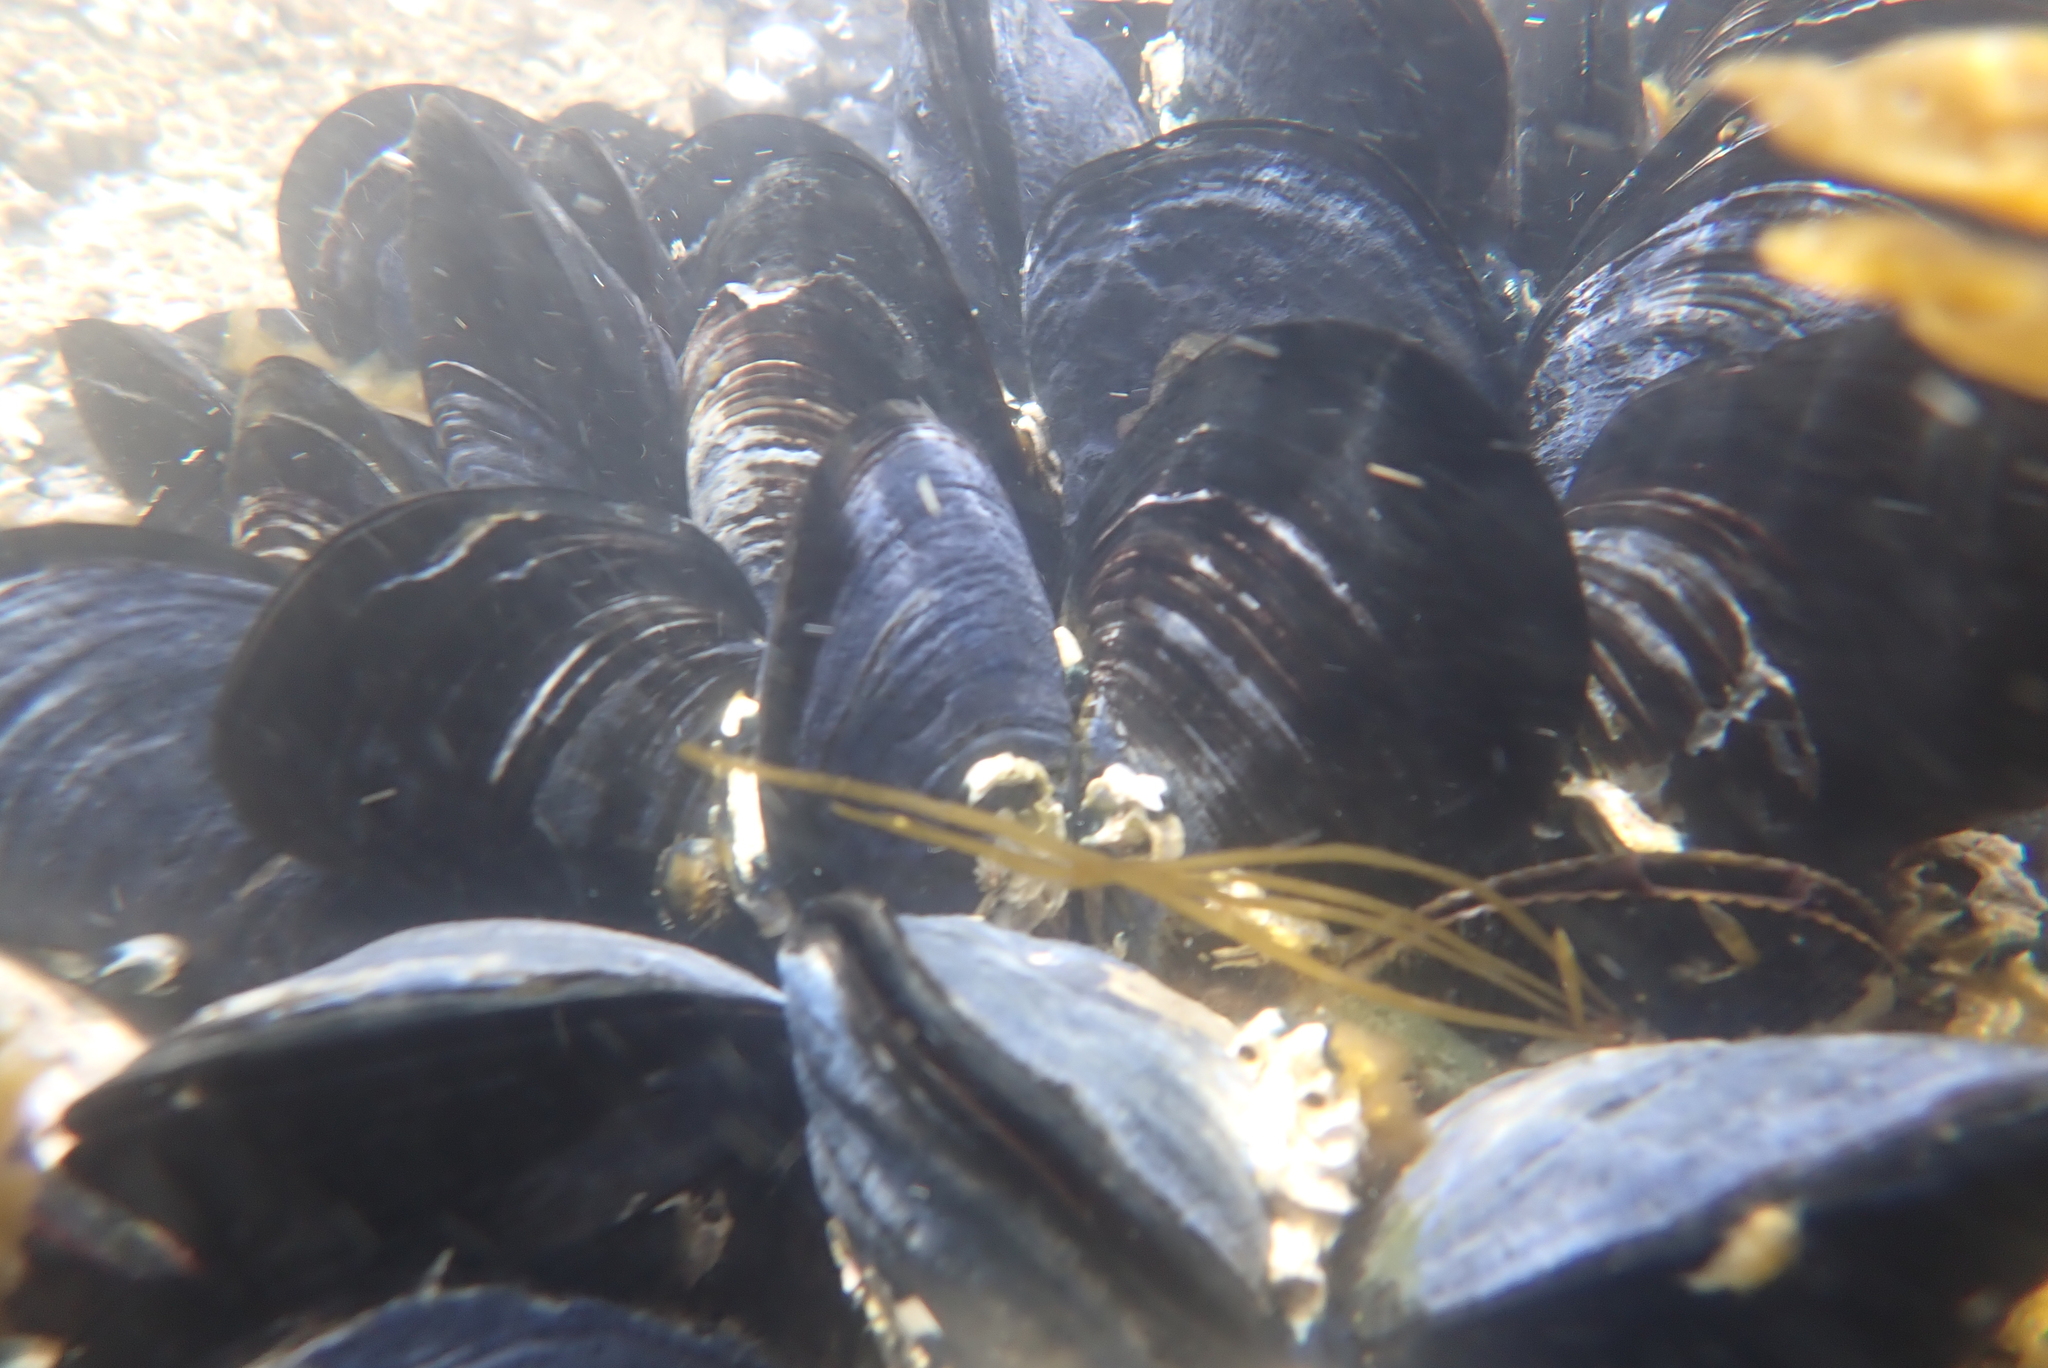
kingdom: Animalia
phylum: Mollusca
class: Bivalvia
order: Mytilida
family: Mytilidae
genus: Mytilus
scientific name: Mytilus planulatus
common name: Australian mussel
